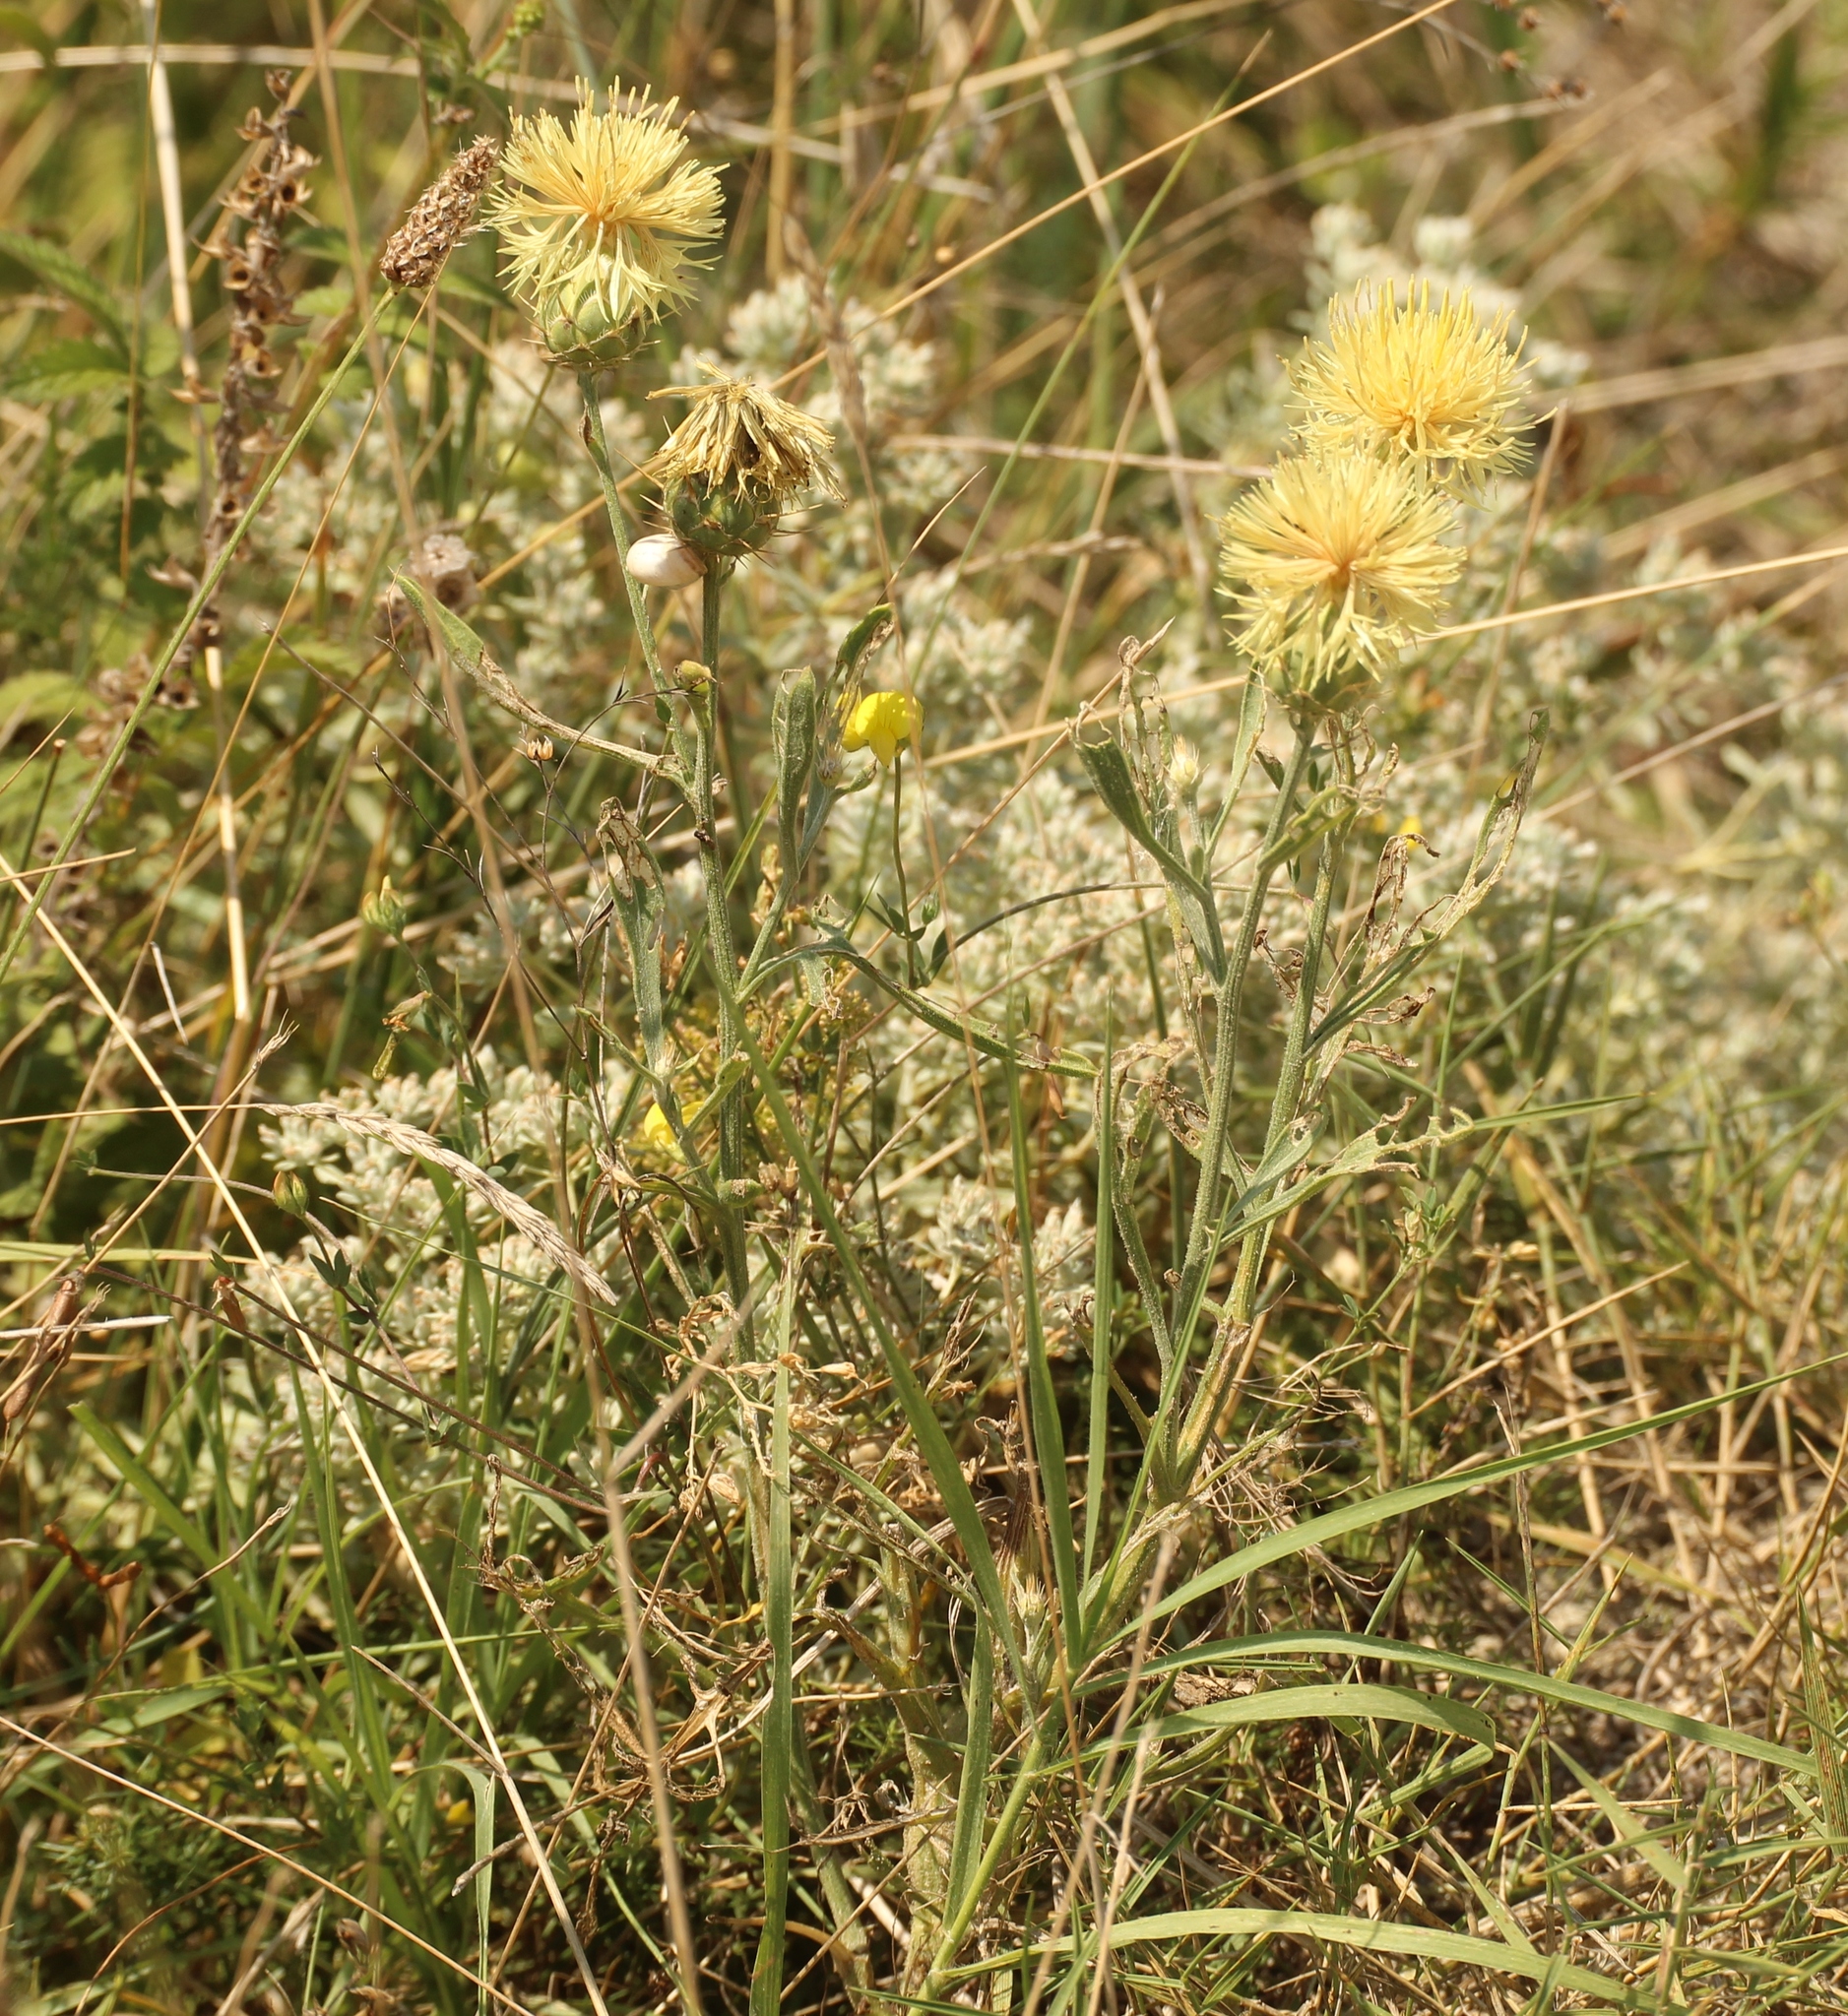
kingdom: Plantae
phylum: Tracheophyta
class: Magnoliopsida
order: Asterales
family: Asteraceae
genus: Centaurea
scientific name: Centaurea salonitana
